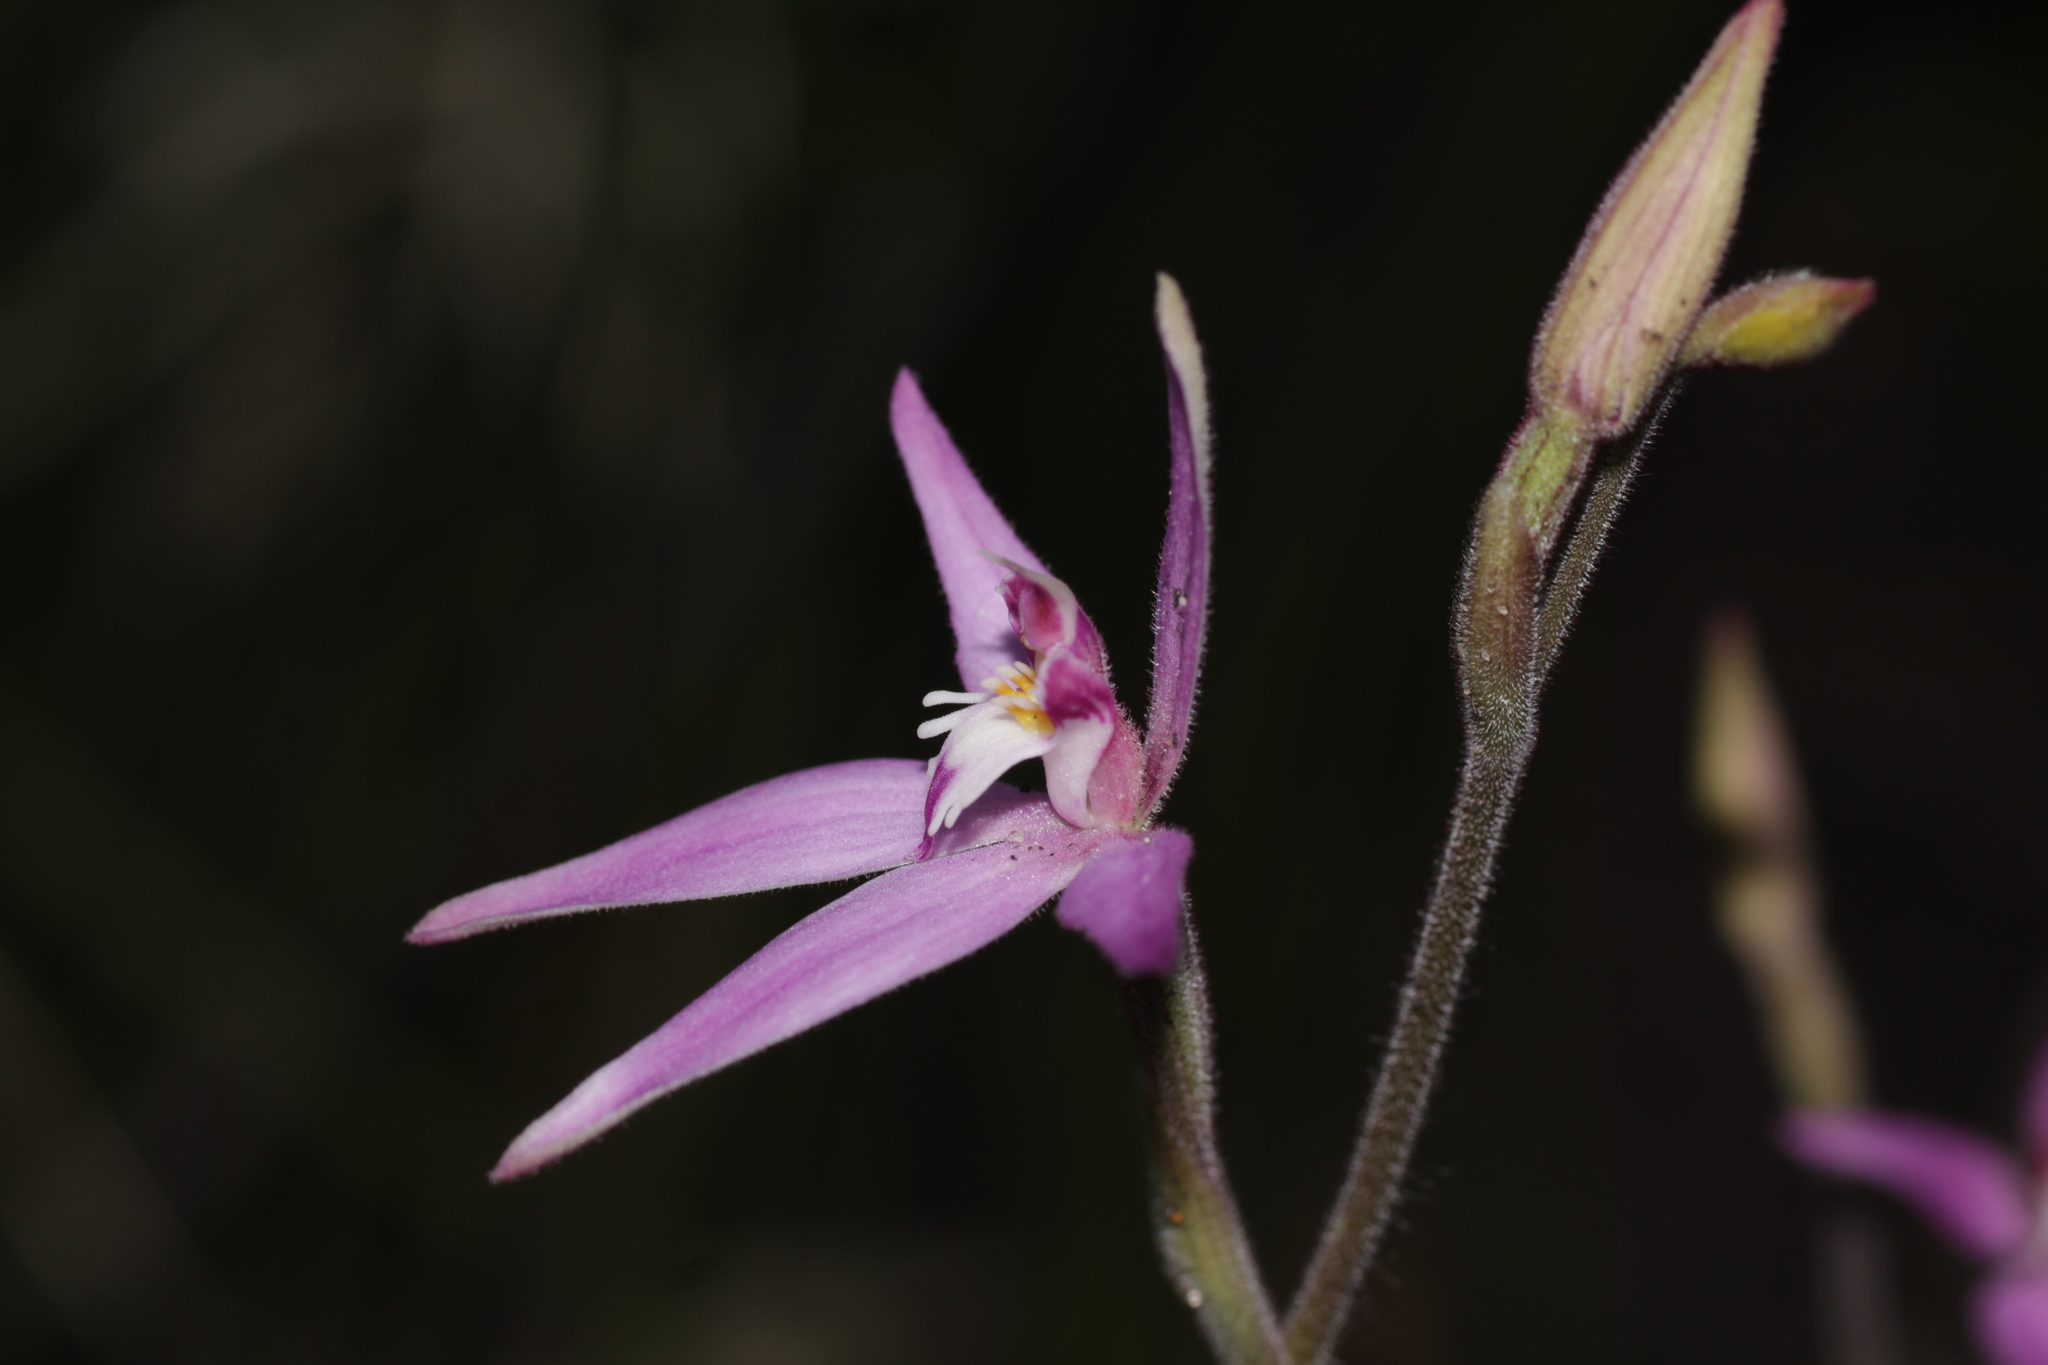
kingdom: Plantae
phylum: Tracheophyta
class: Liliopsida
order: Asparagales
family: Orchidaceae
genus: Caladenia
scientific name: Caladenia latifolia
